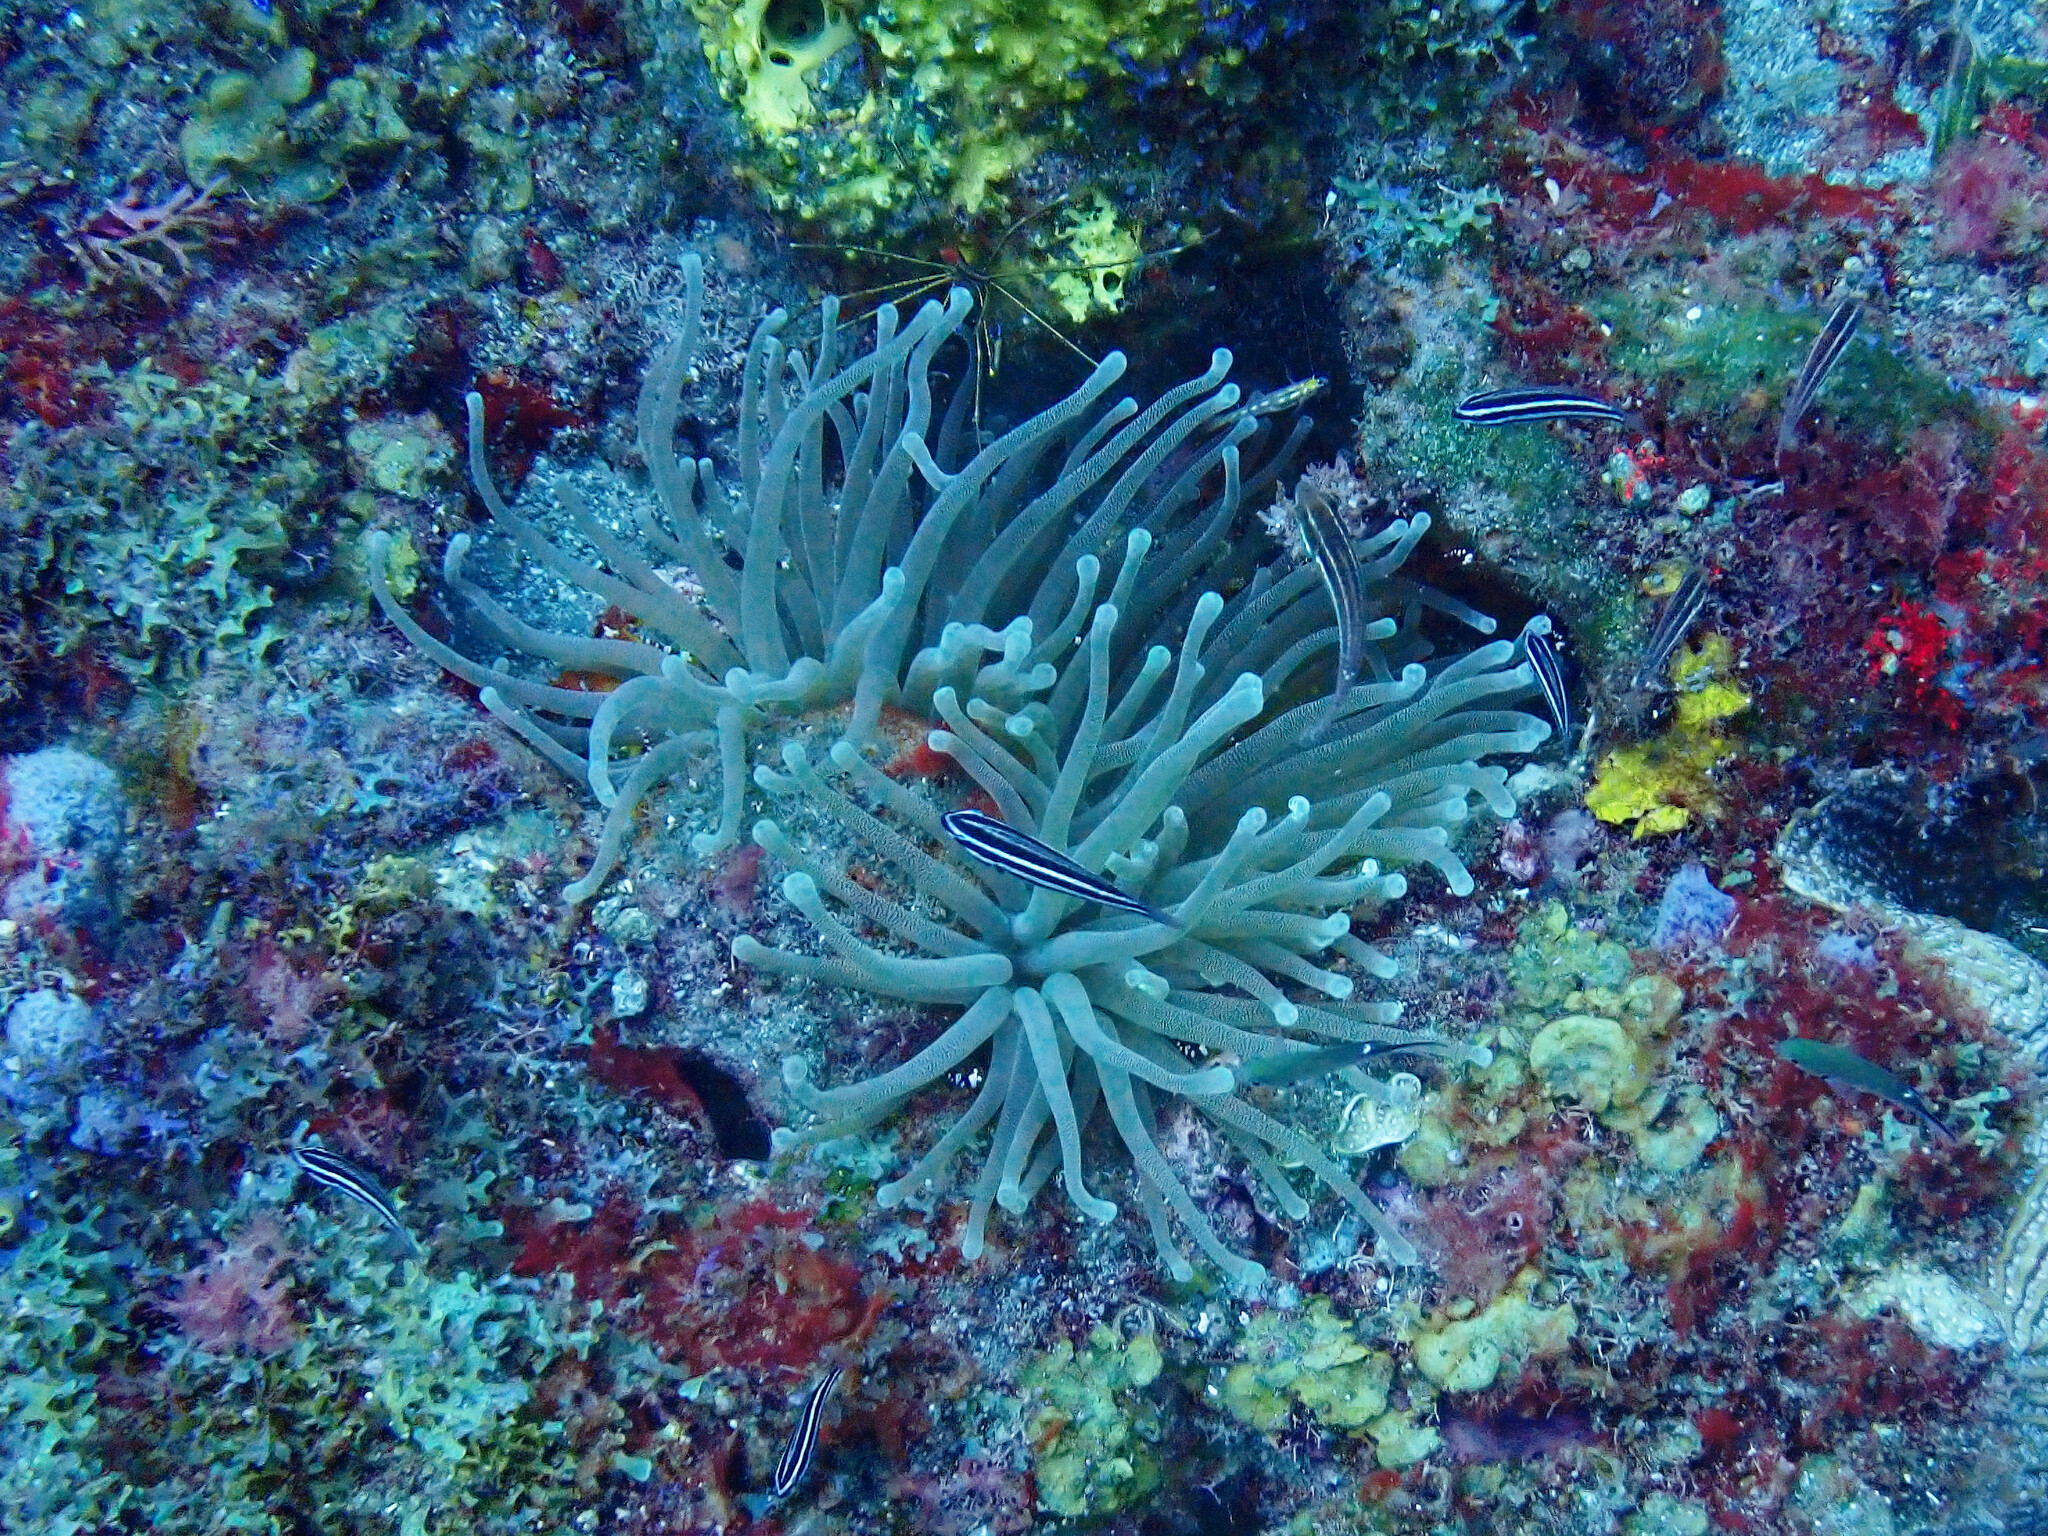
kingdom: Animalia
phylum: Cnidaria
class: Anthozoa
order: Actiniaria
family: Actiniidae
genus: Condylactis
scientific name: Condylactis gigantea
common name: Giant caribbean anemone
